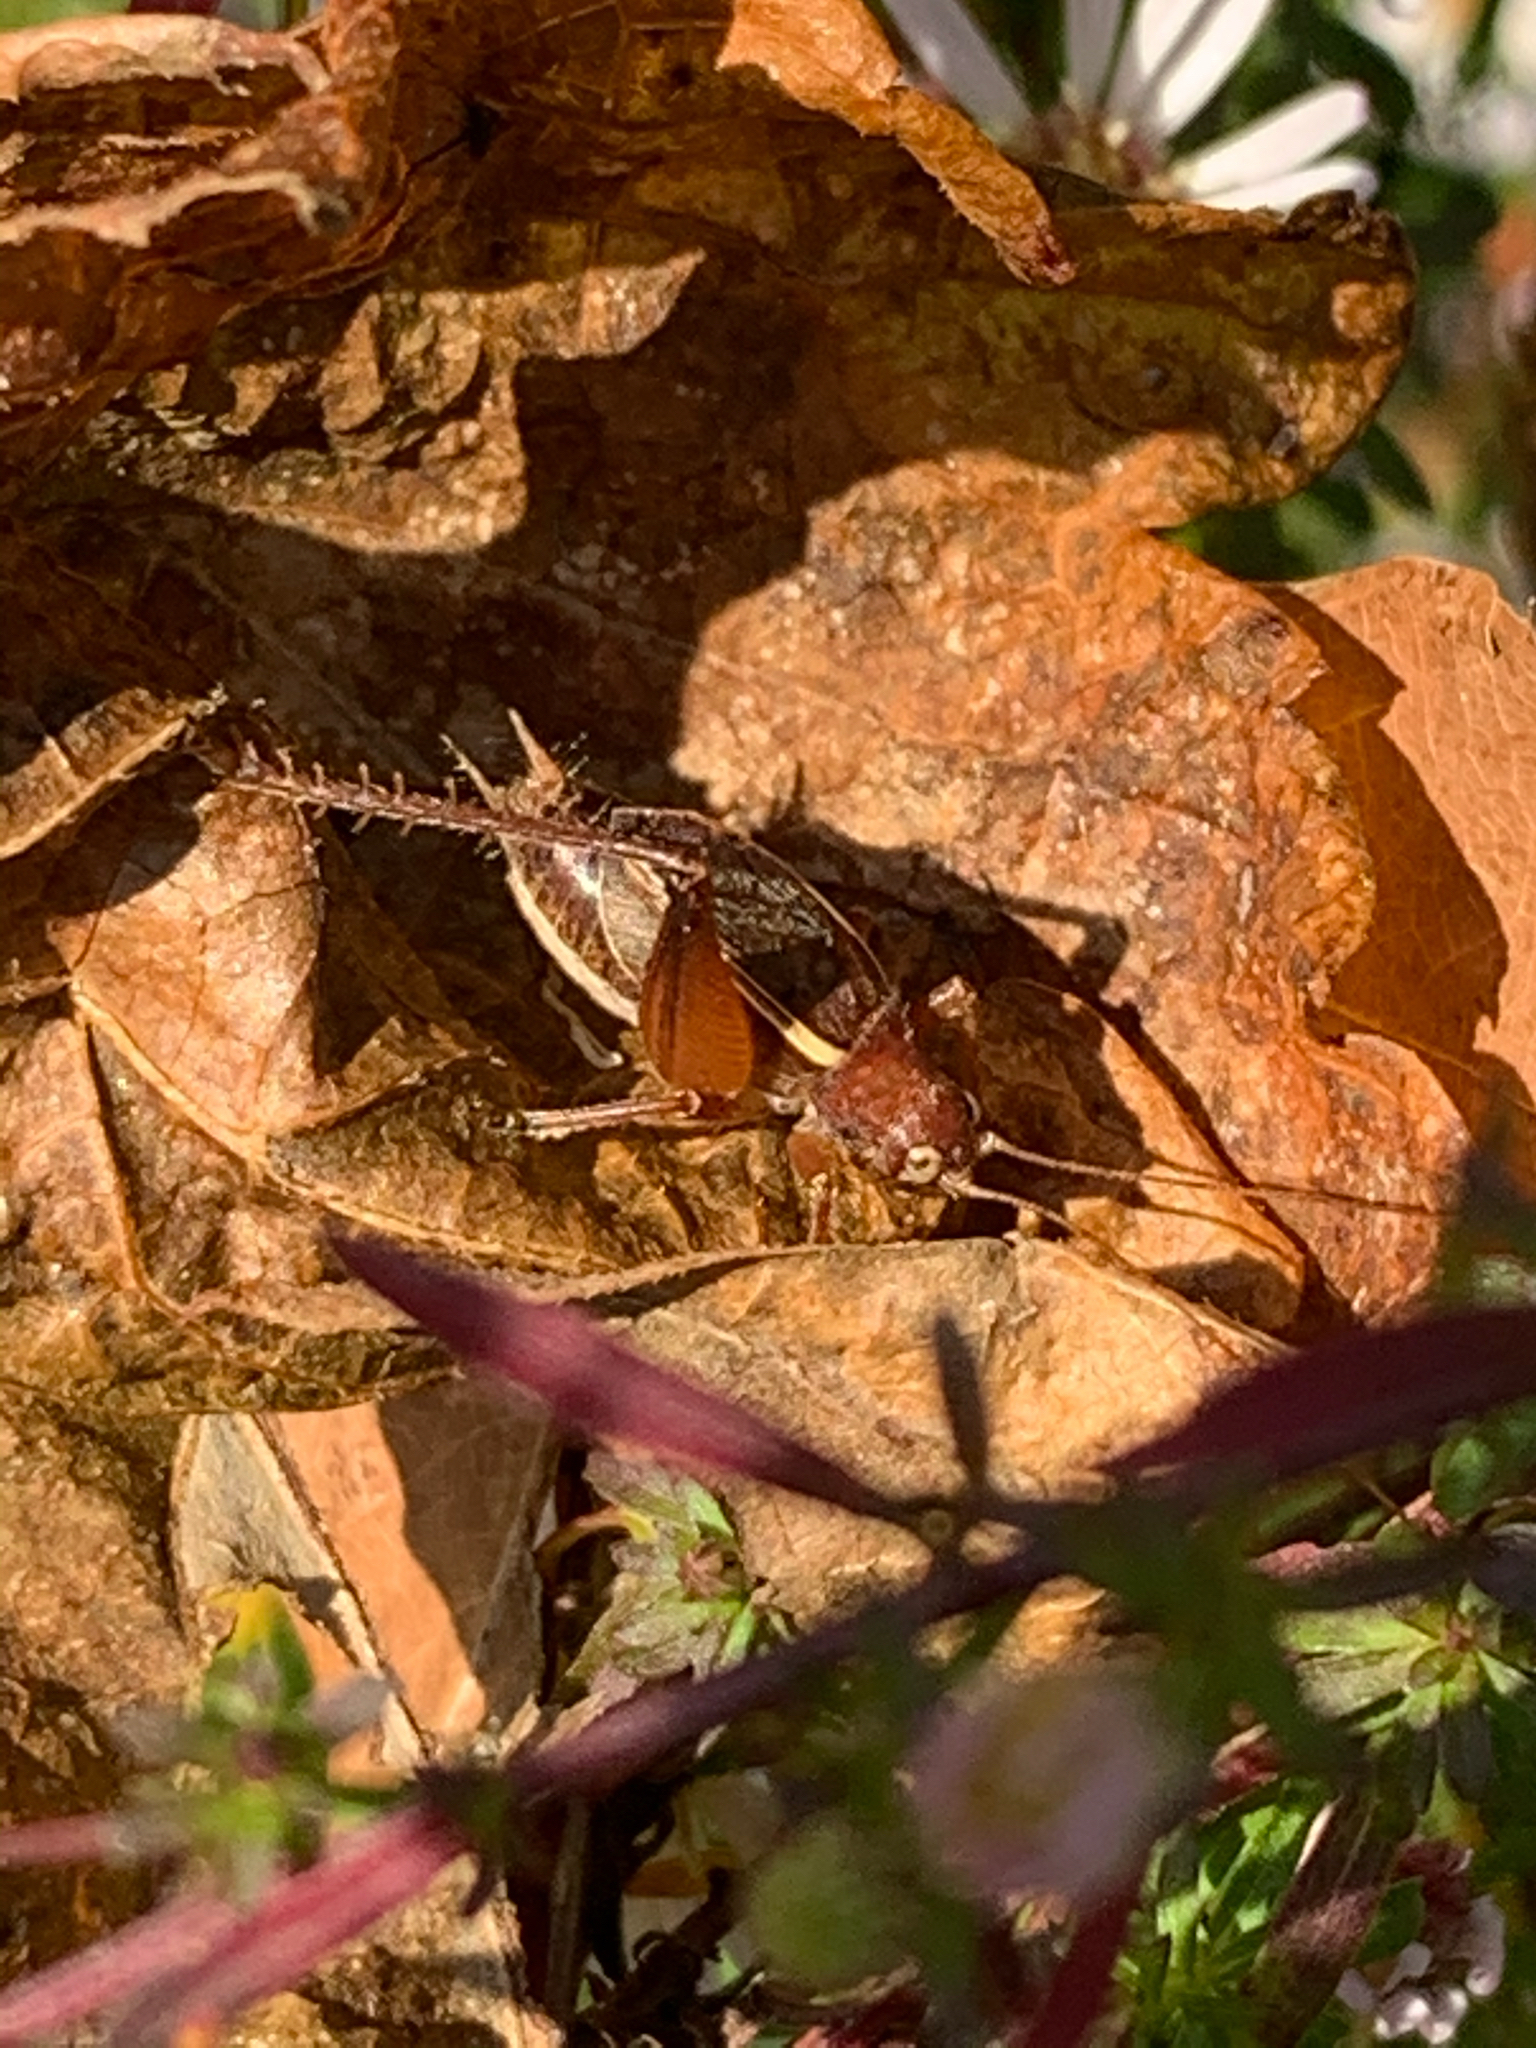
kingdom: Animalia
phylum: Arthropoda
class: Insecta
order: Orthoptera
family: Gryllidae
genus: Hapithus
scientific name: Hapithus agitator
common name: Restless bush cricket
